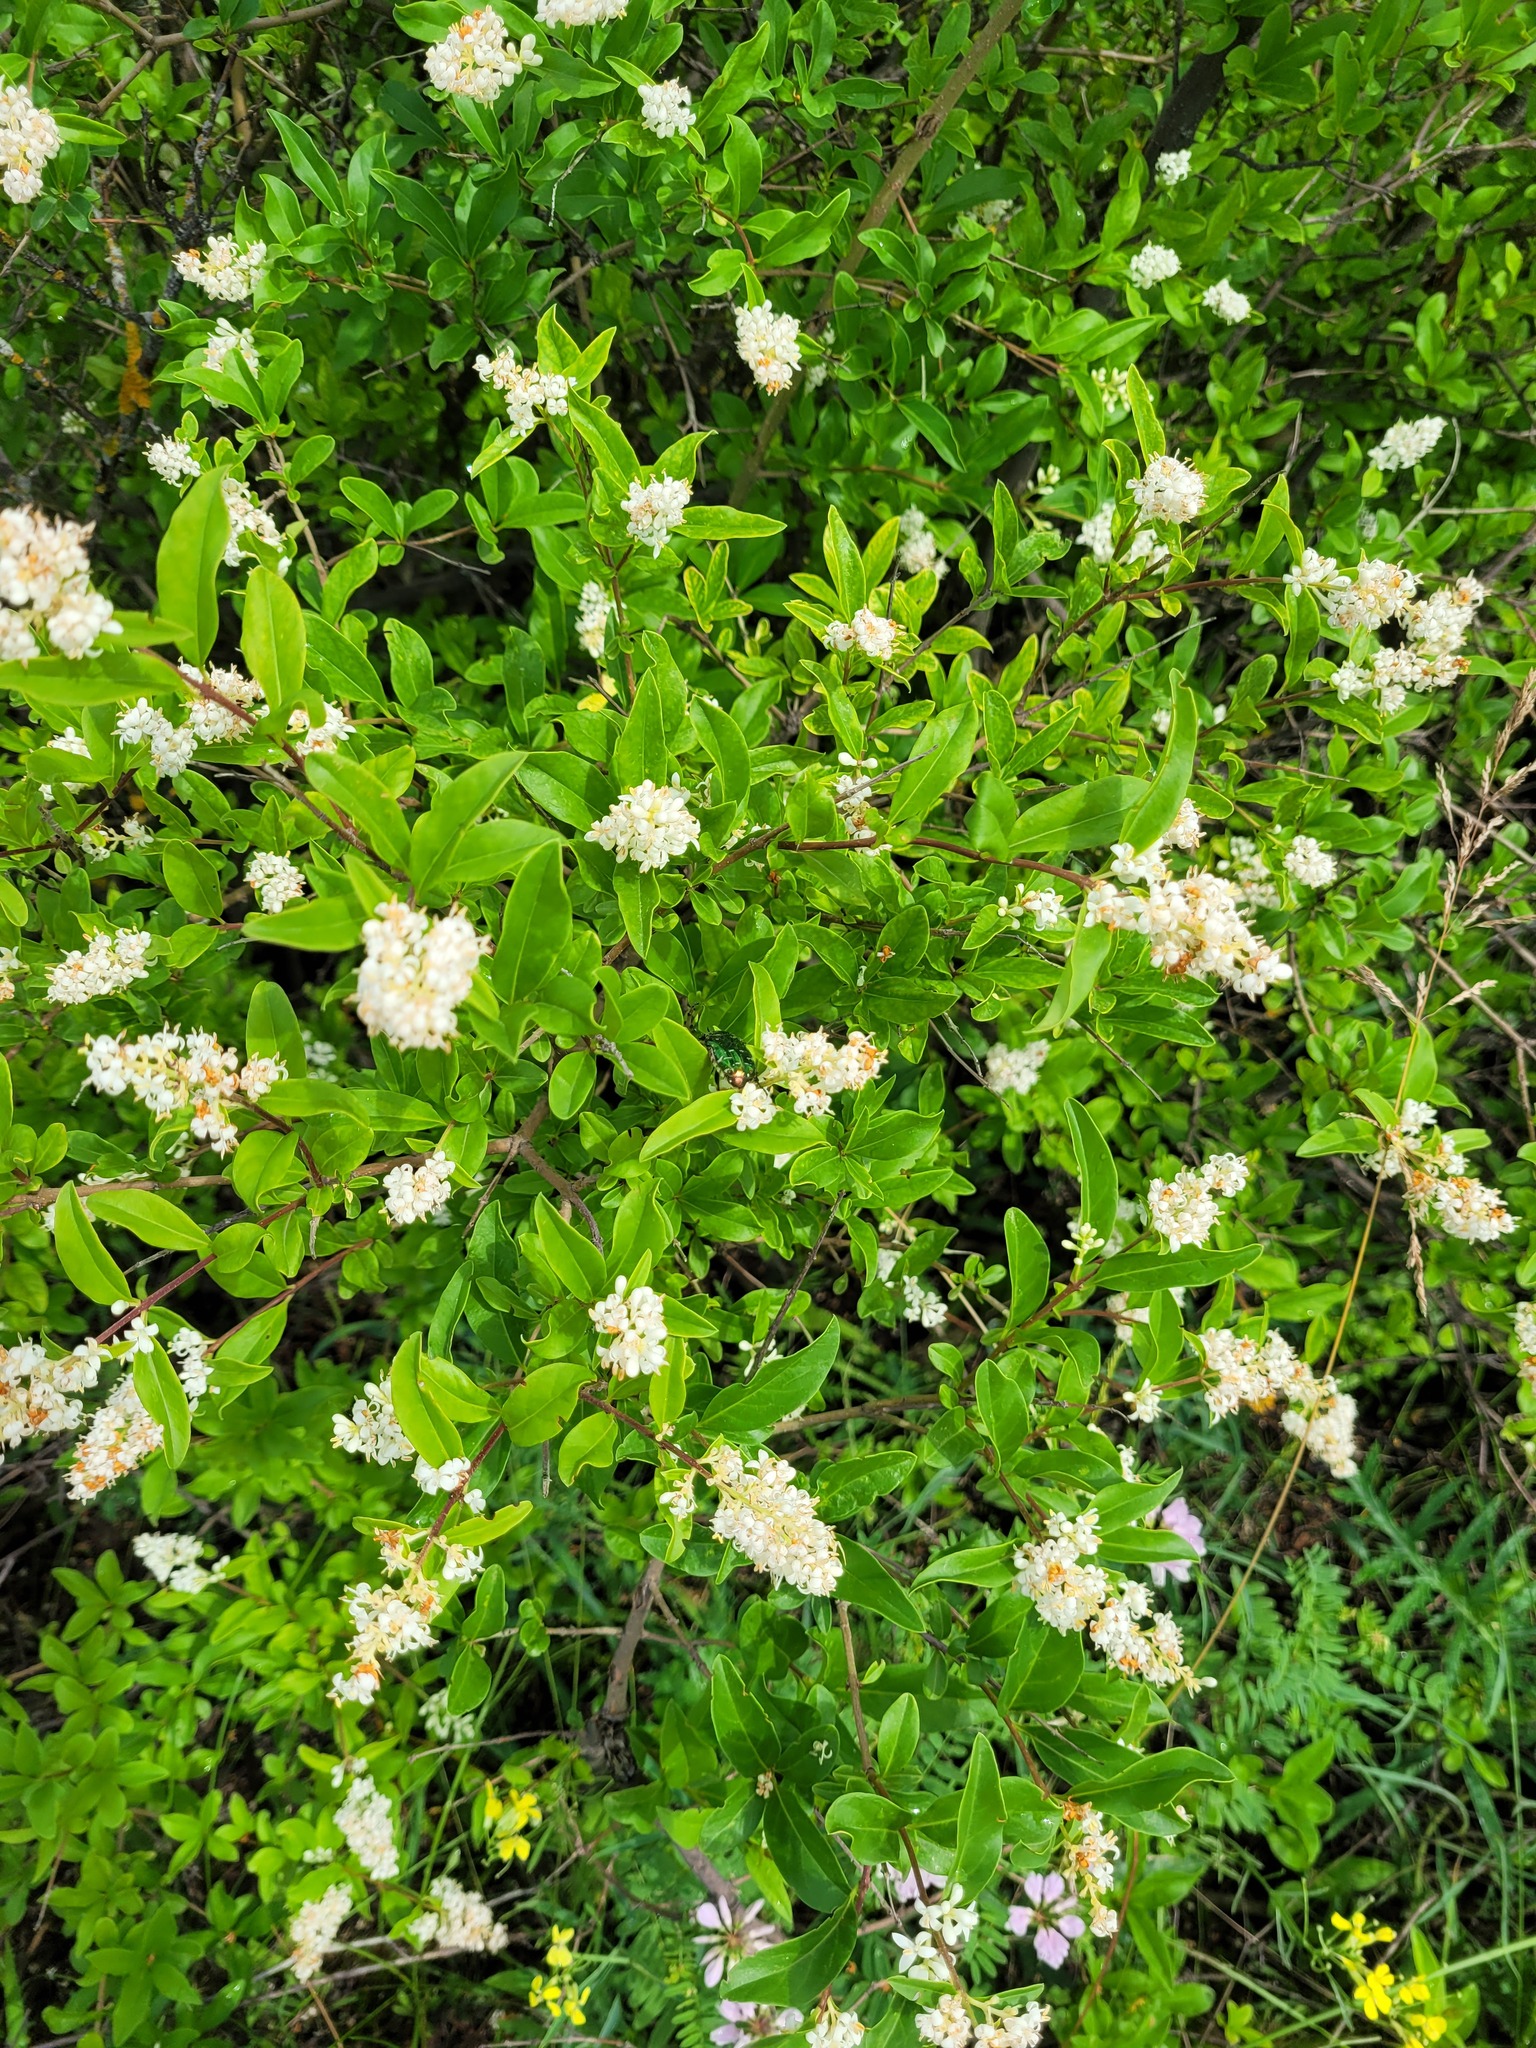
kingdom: Plantae
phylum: Tracheophyta
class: Magnoliopsida
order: Lamiales
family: Oleaceae
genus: Ligustrum
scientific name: Ligustrum vulgare
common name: Wild privet
